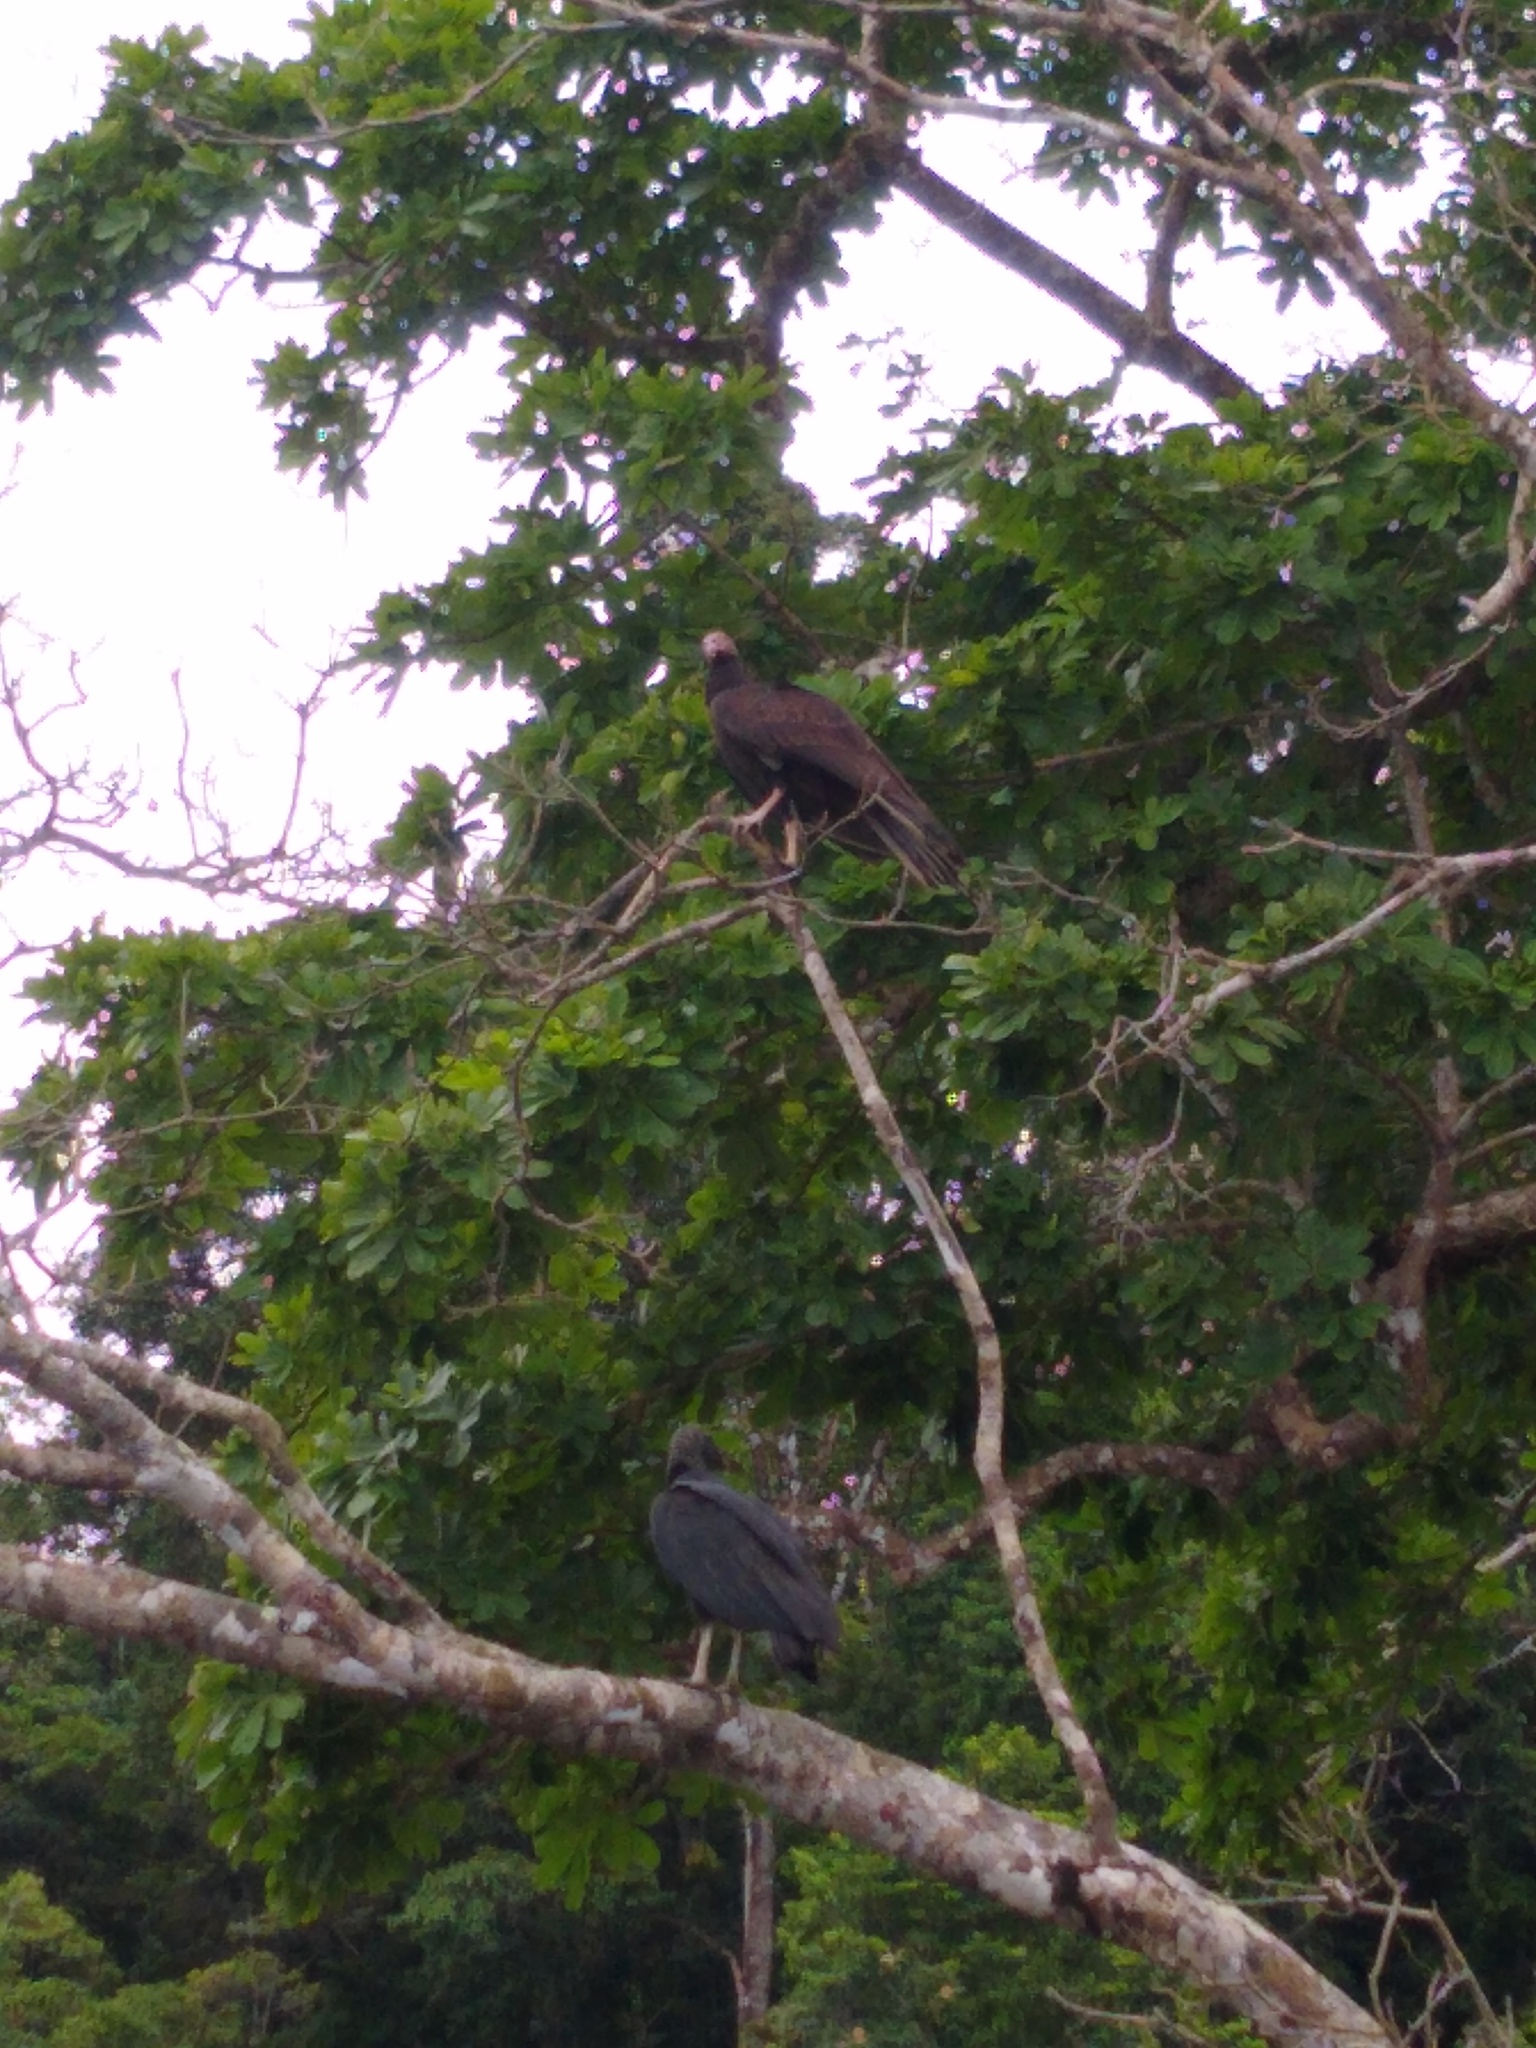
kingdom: Animalia
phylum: Chordata
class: Aves
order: Accipitriformes
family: Cathartidae
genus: Cathartes
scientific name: Cathartes aura
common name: Turkey vulture
